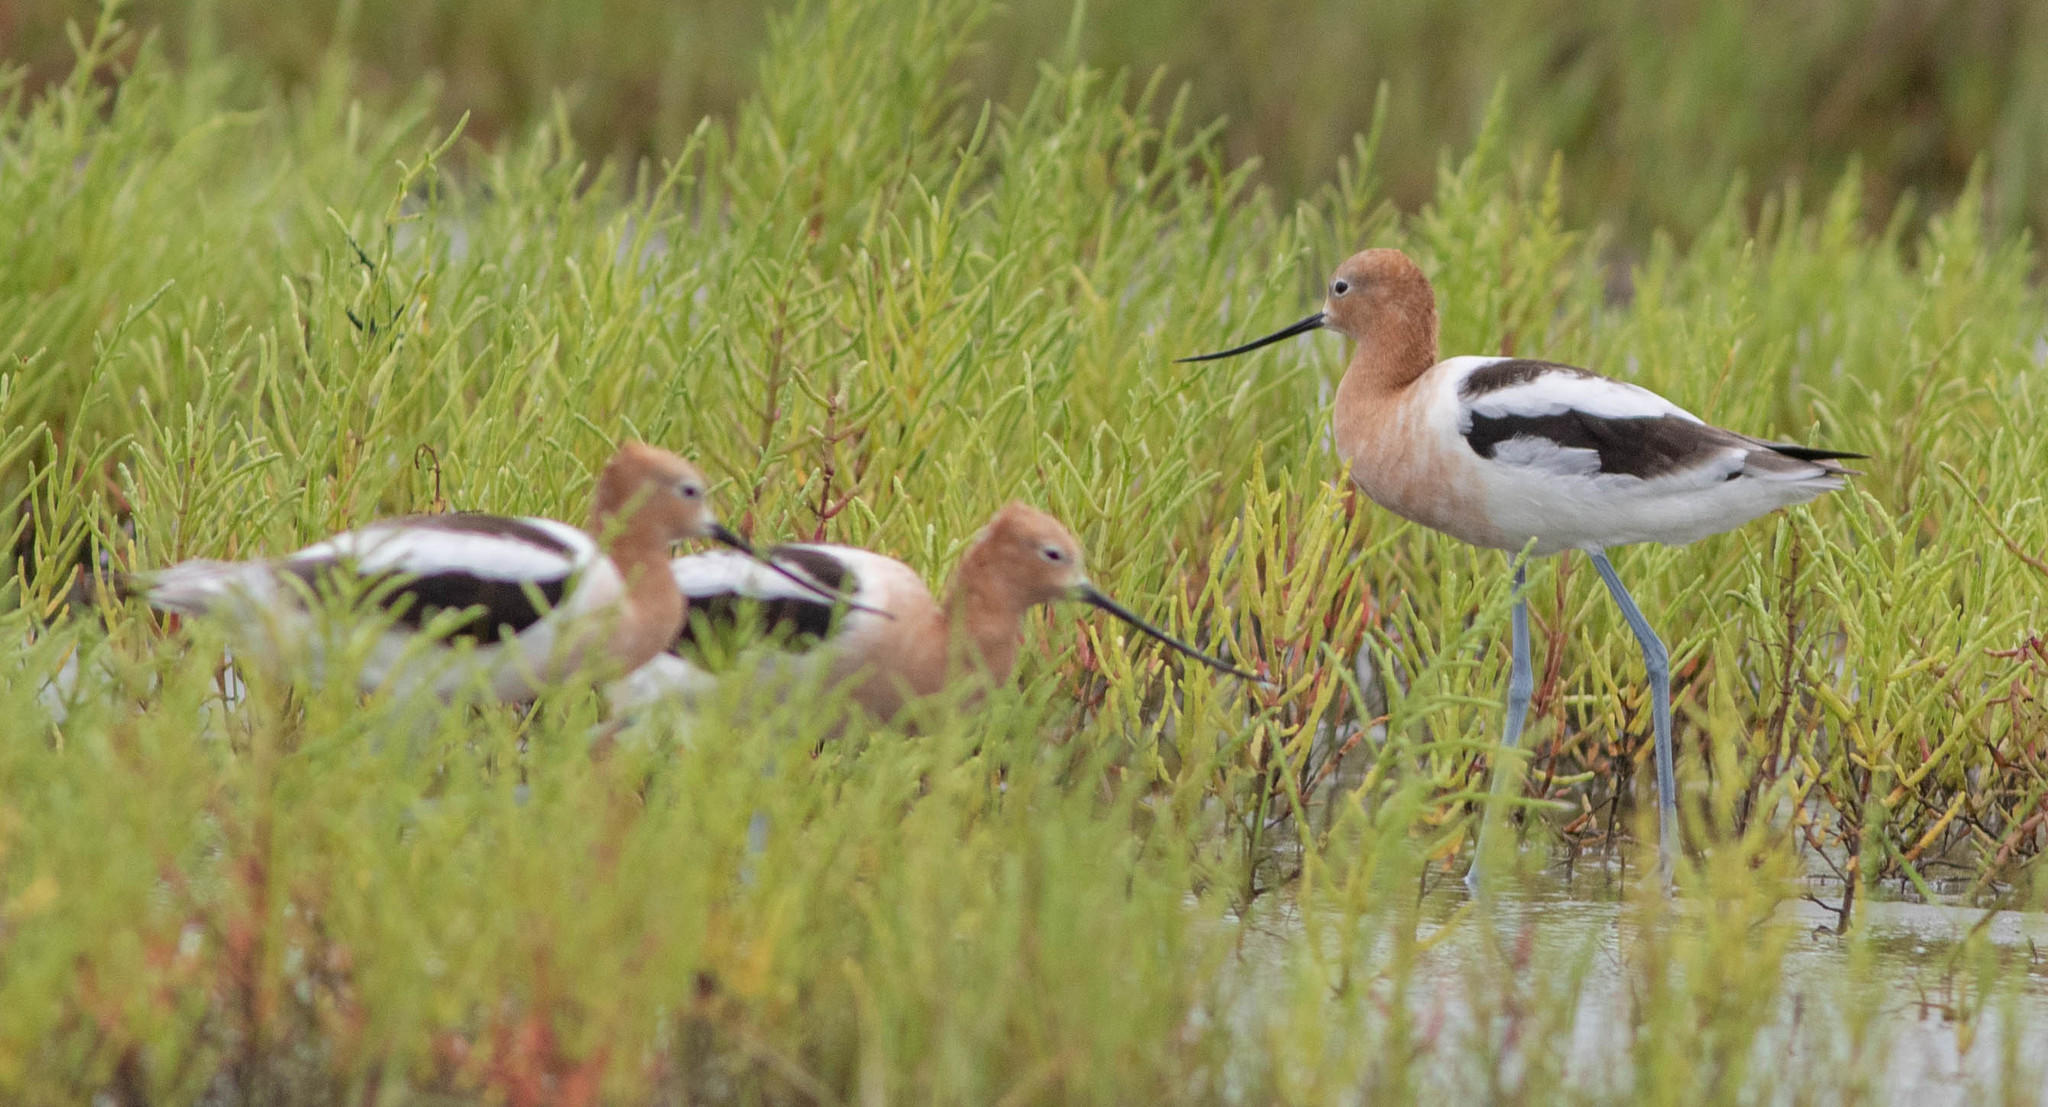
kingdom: Animalia
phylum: Chordata
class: Aves
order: Charadriiformes
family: Recurvirostridae
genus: Recurvirostra
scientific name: Recurvirostra americana
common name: American avocet
